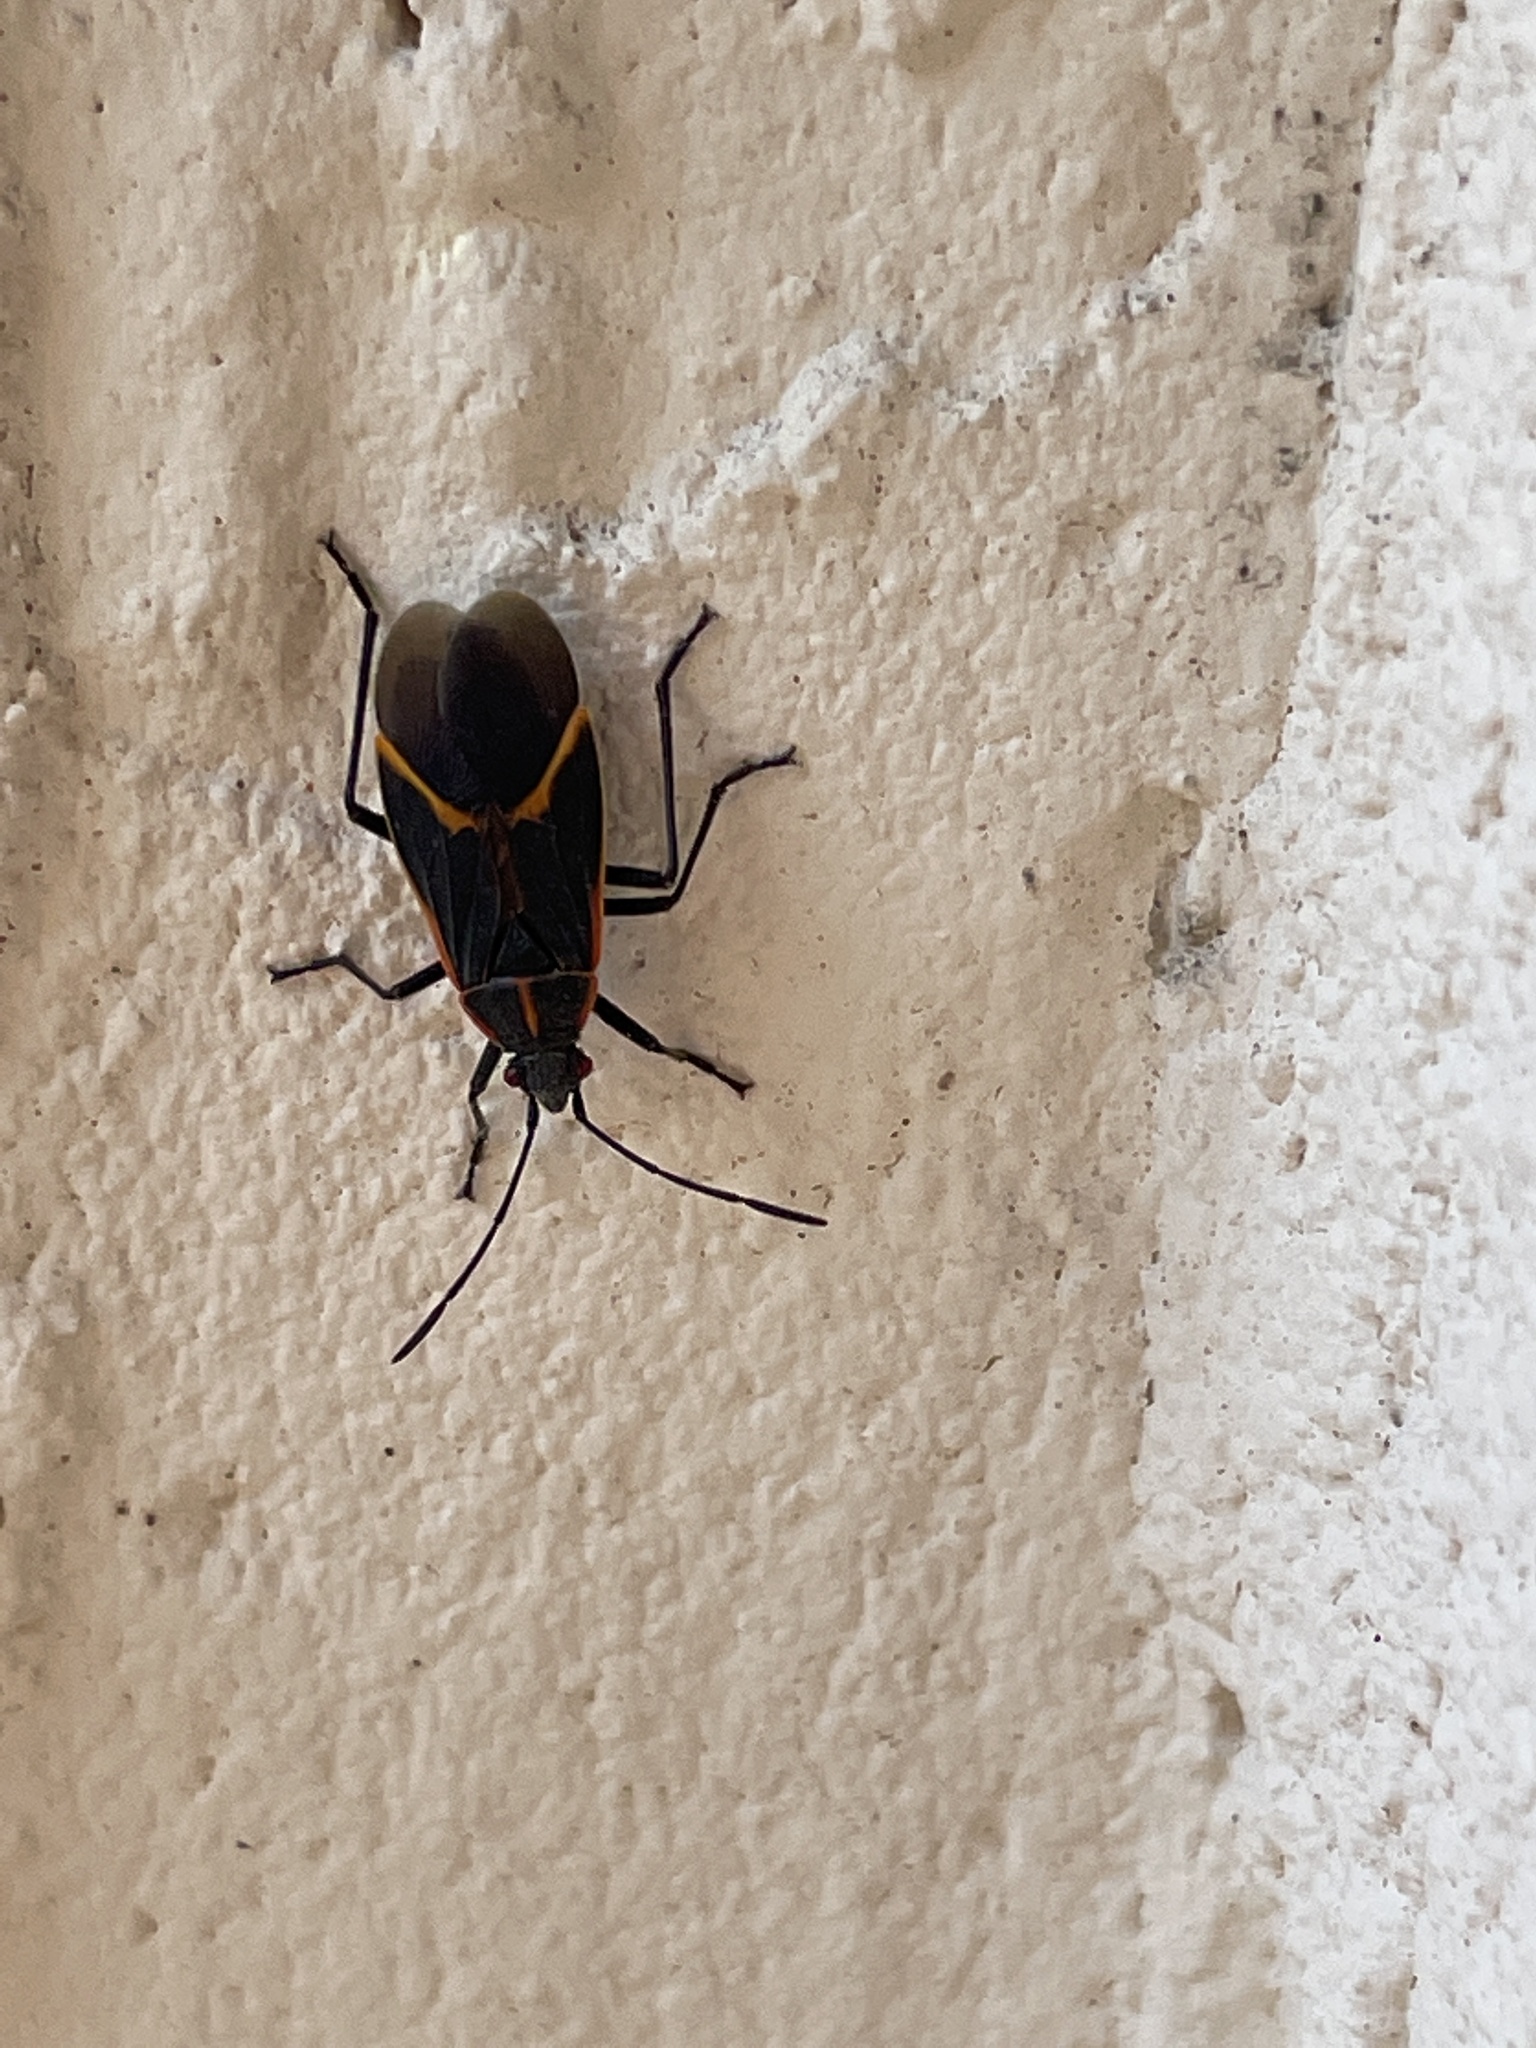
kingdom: Animalia
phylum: Arthropoda
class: Insecta
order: Hemiptera
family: Rhopalidae
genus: Boisea
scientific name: Boisea trivittata
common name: Boxelder bug
